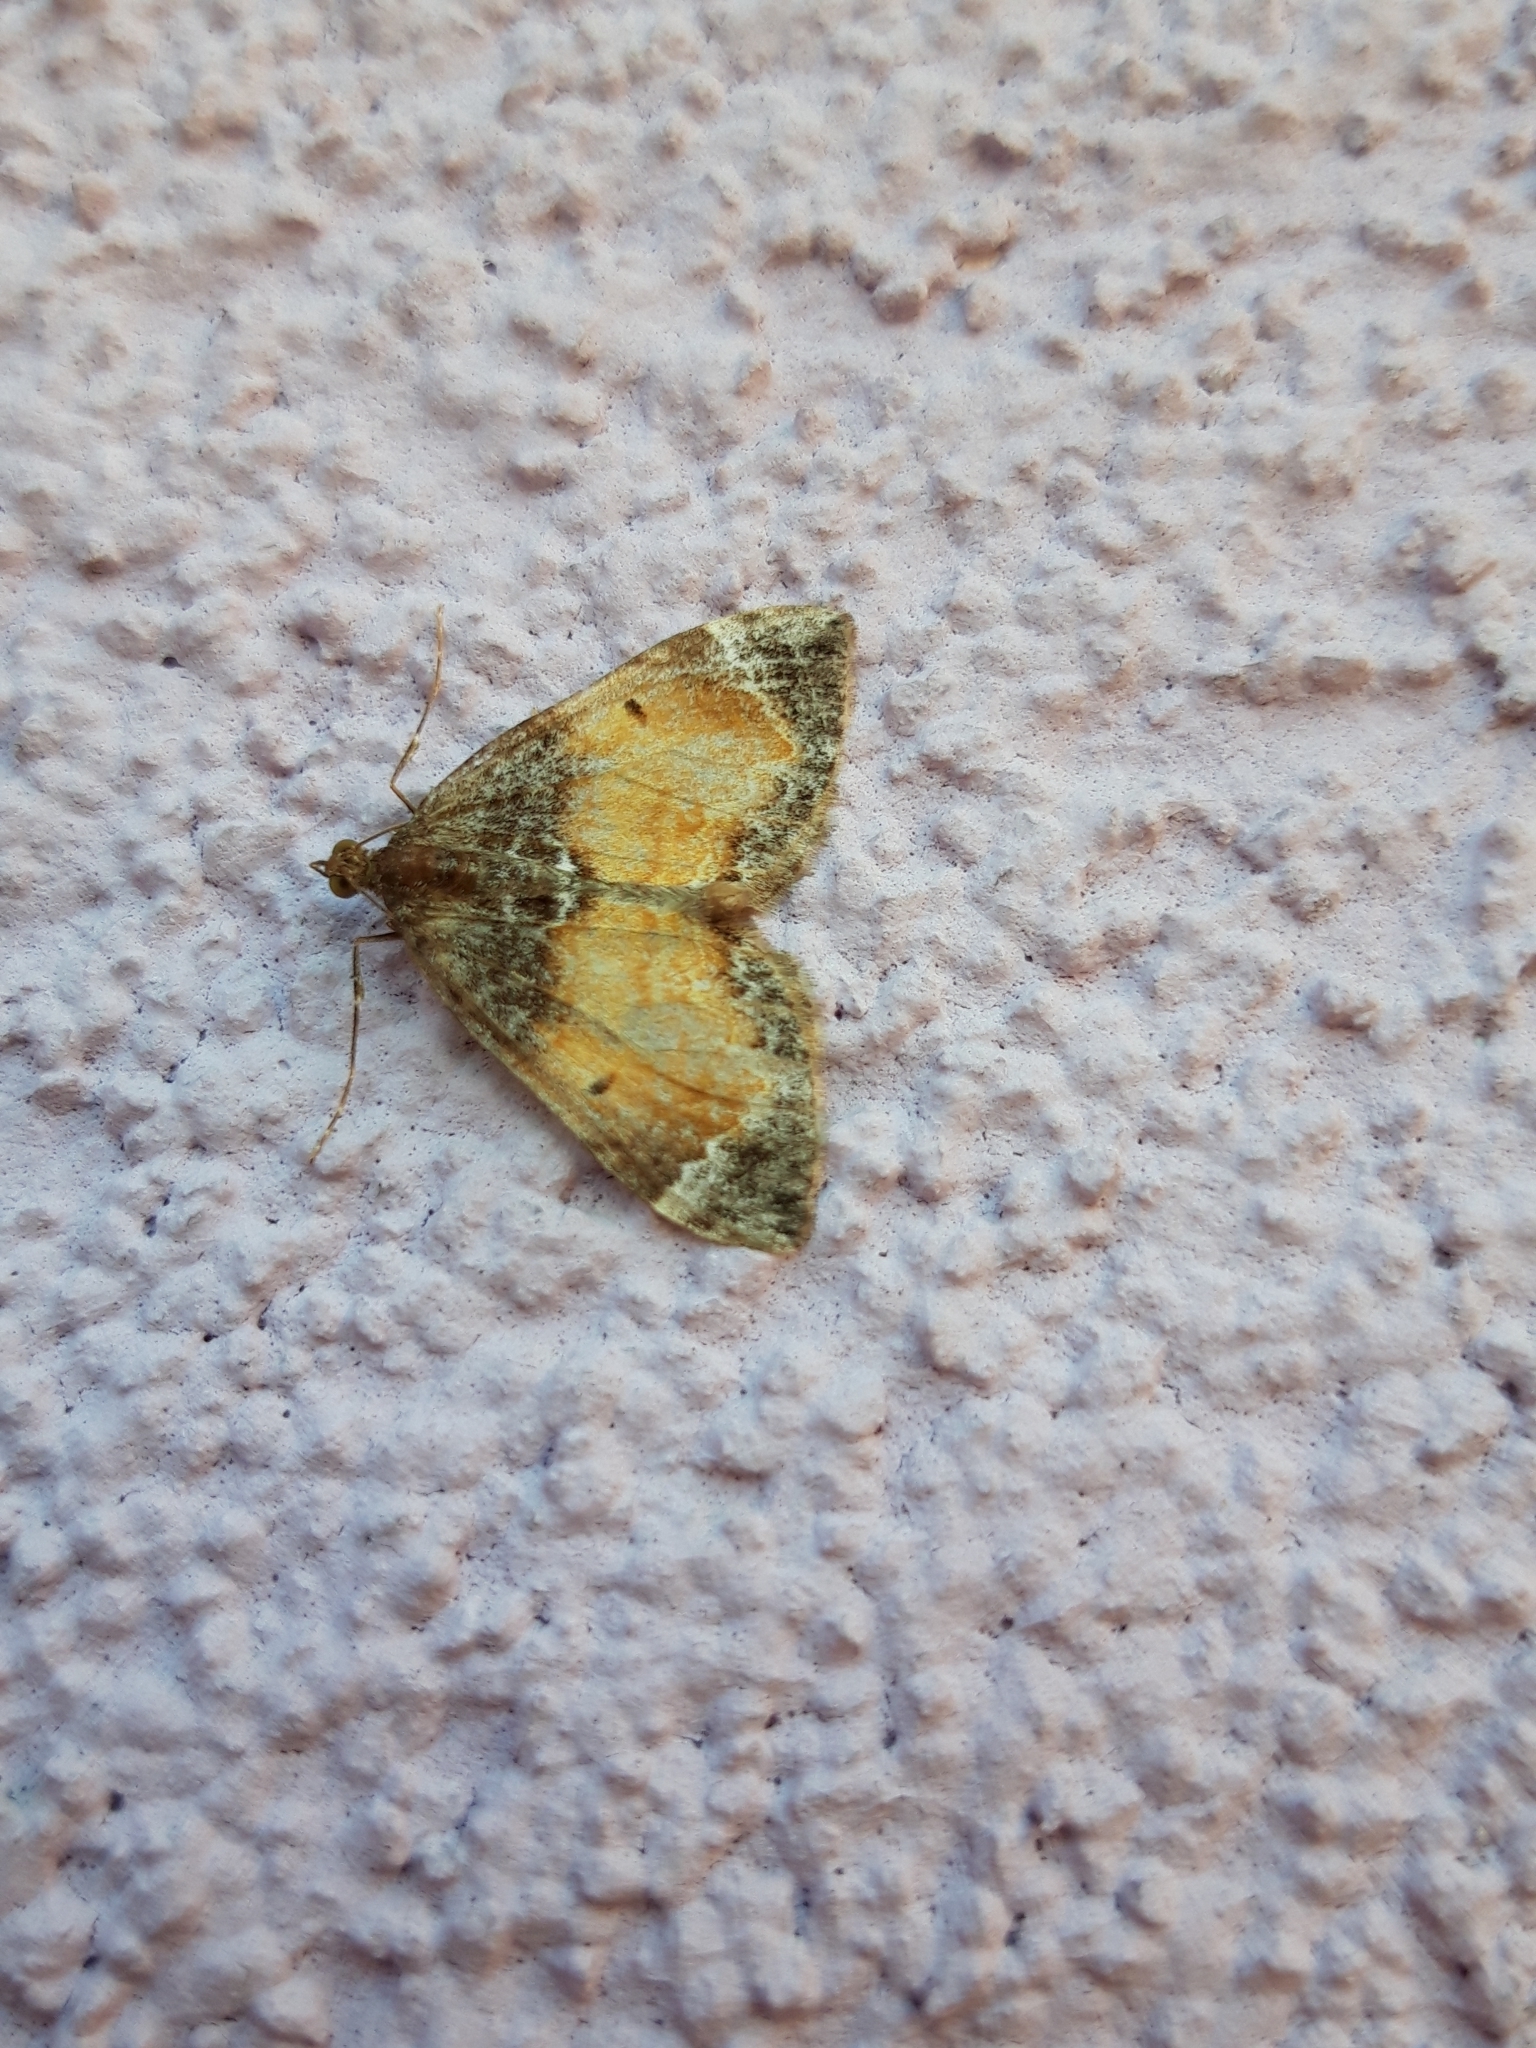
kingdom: Animalia
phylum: Arthropoda
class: Insecta
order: Lepidoptera
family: Geometridae
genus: Dysstroma
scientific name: Dysstroma truncata
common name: Common marbled carpet
